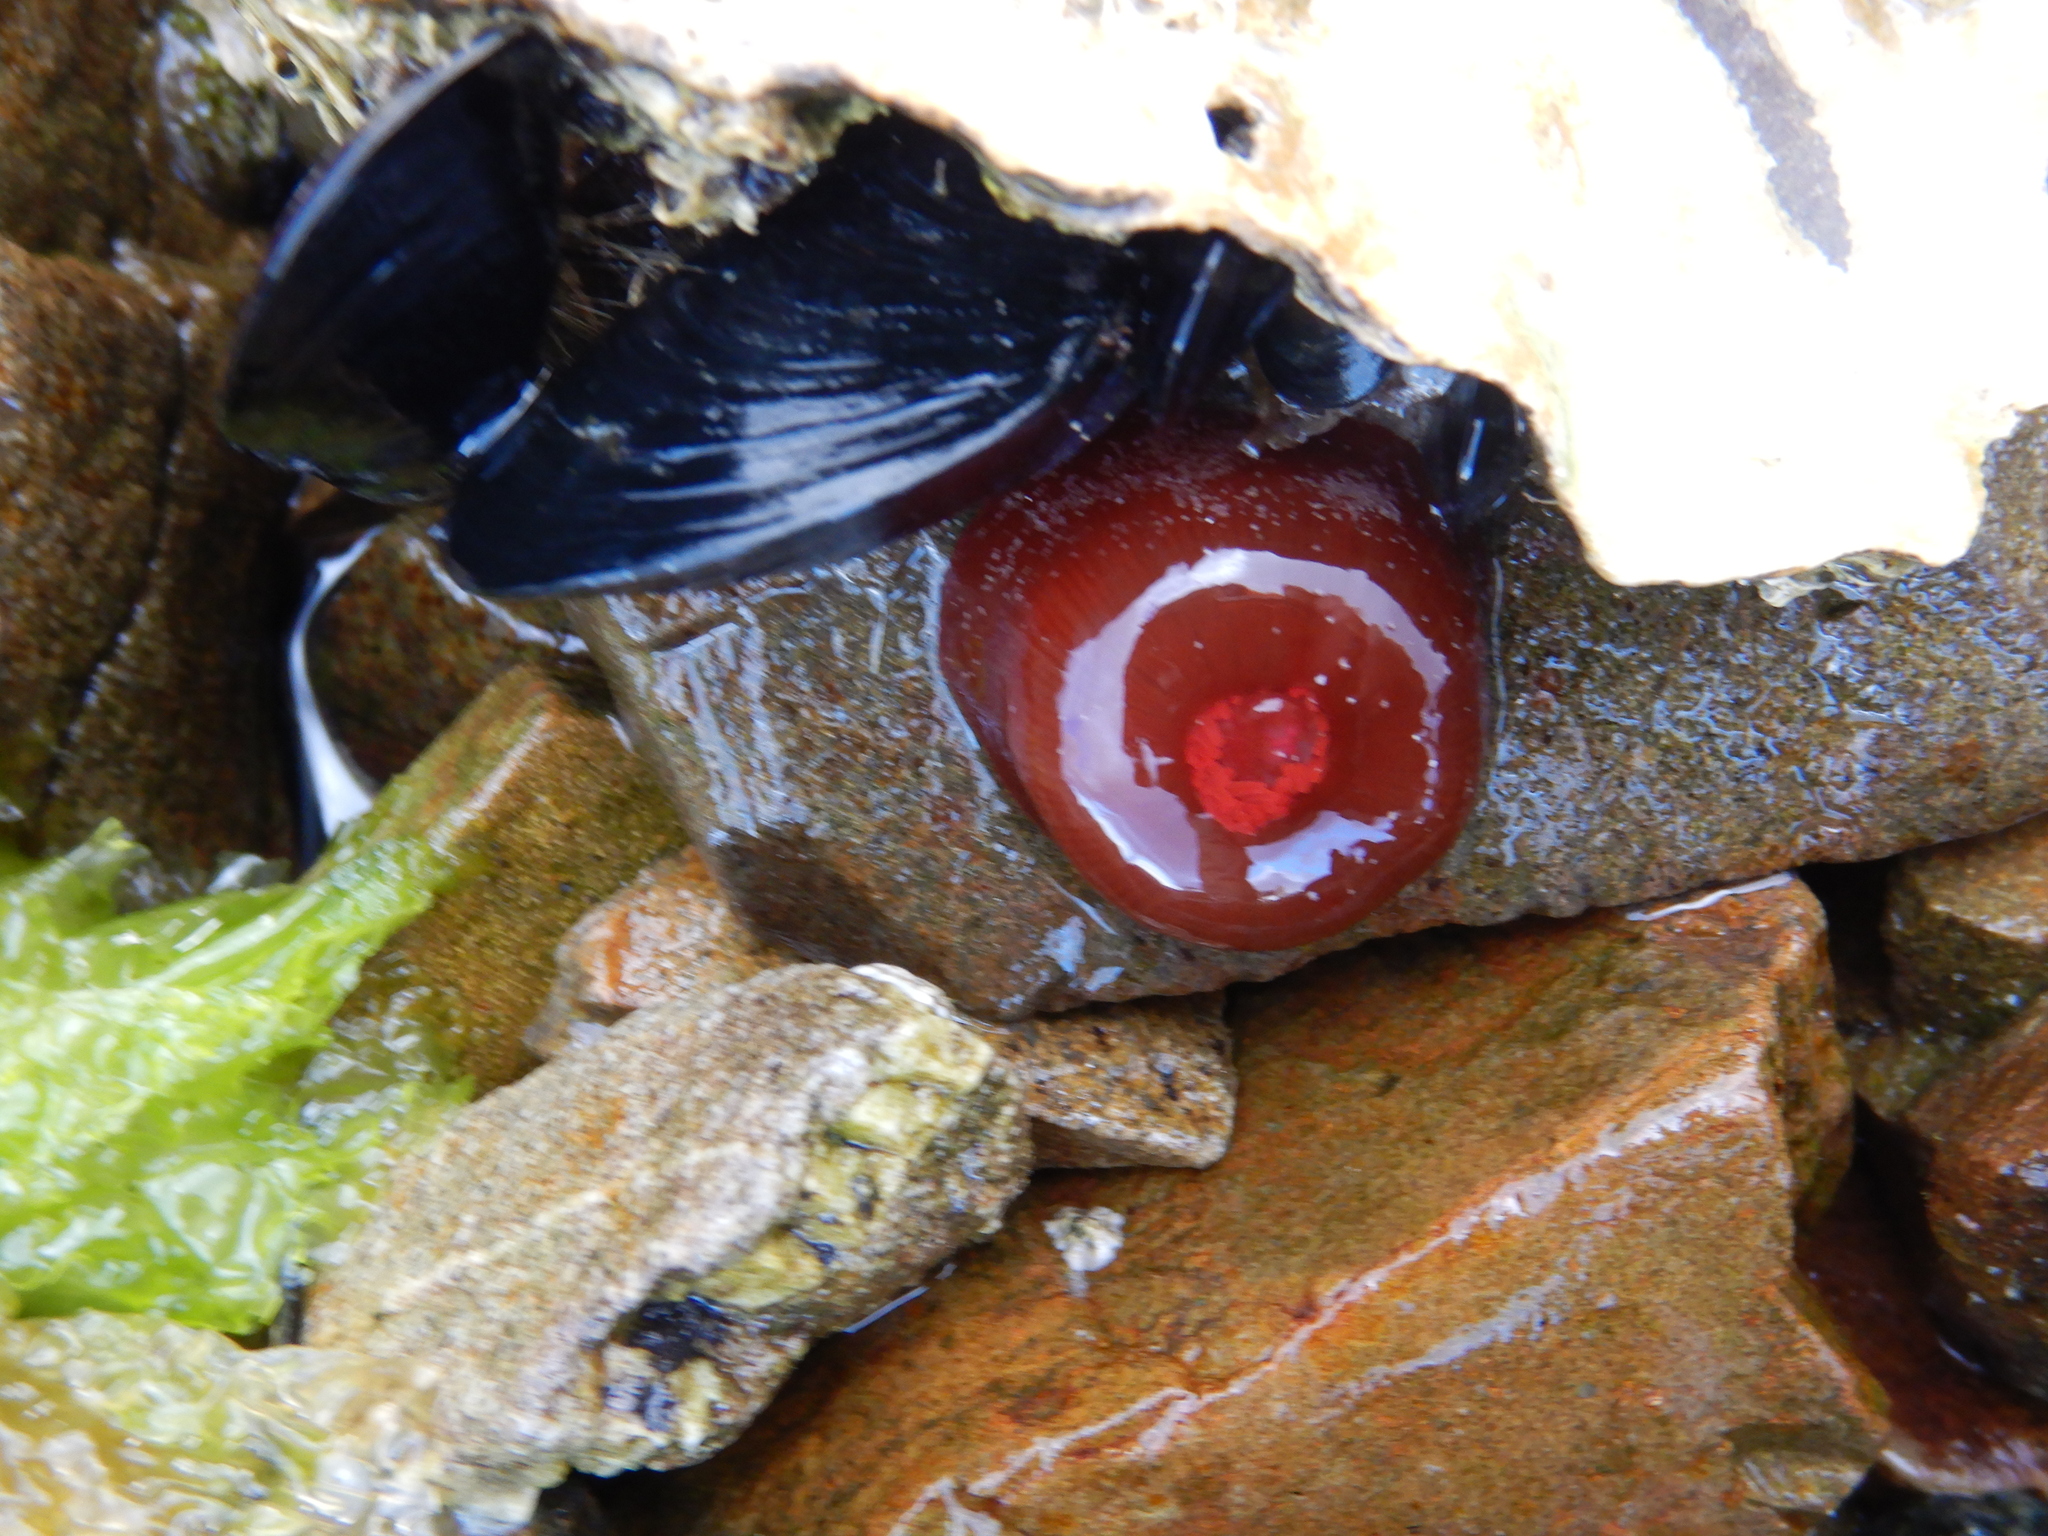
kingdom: Animalia
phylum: Cnidaria
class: Anthozoa
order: Actiniaria
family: Actiniidae
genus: Actinia
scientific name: Actinia tenebrosa
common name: Waratah anemone
